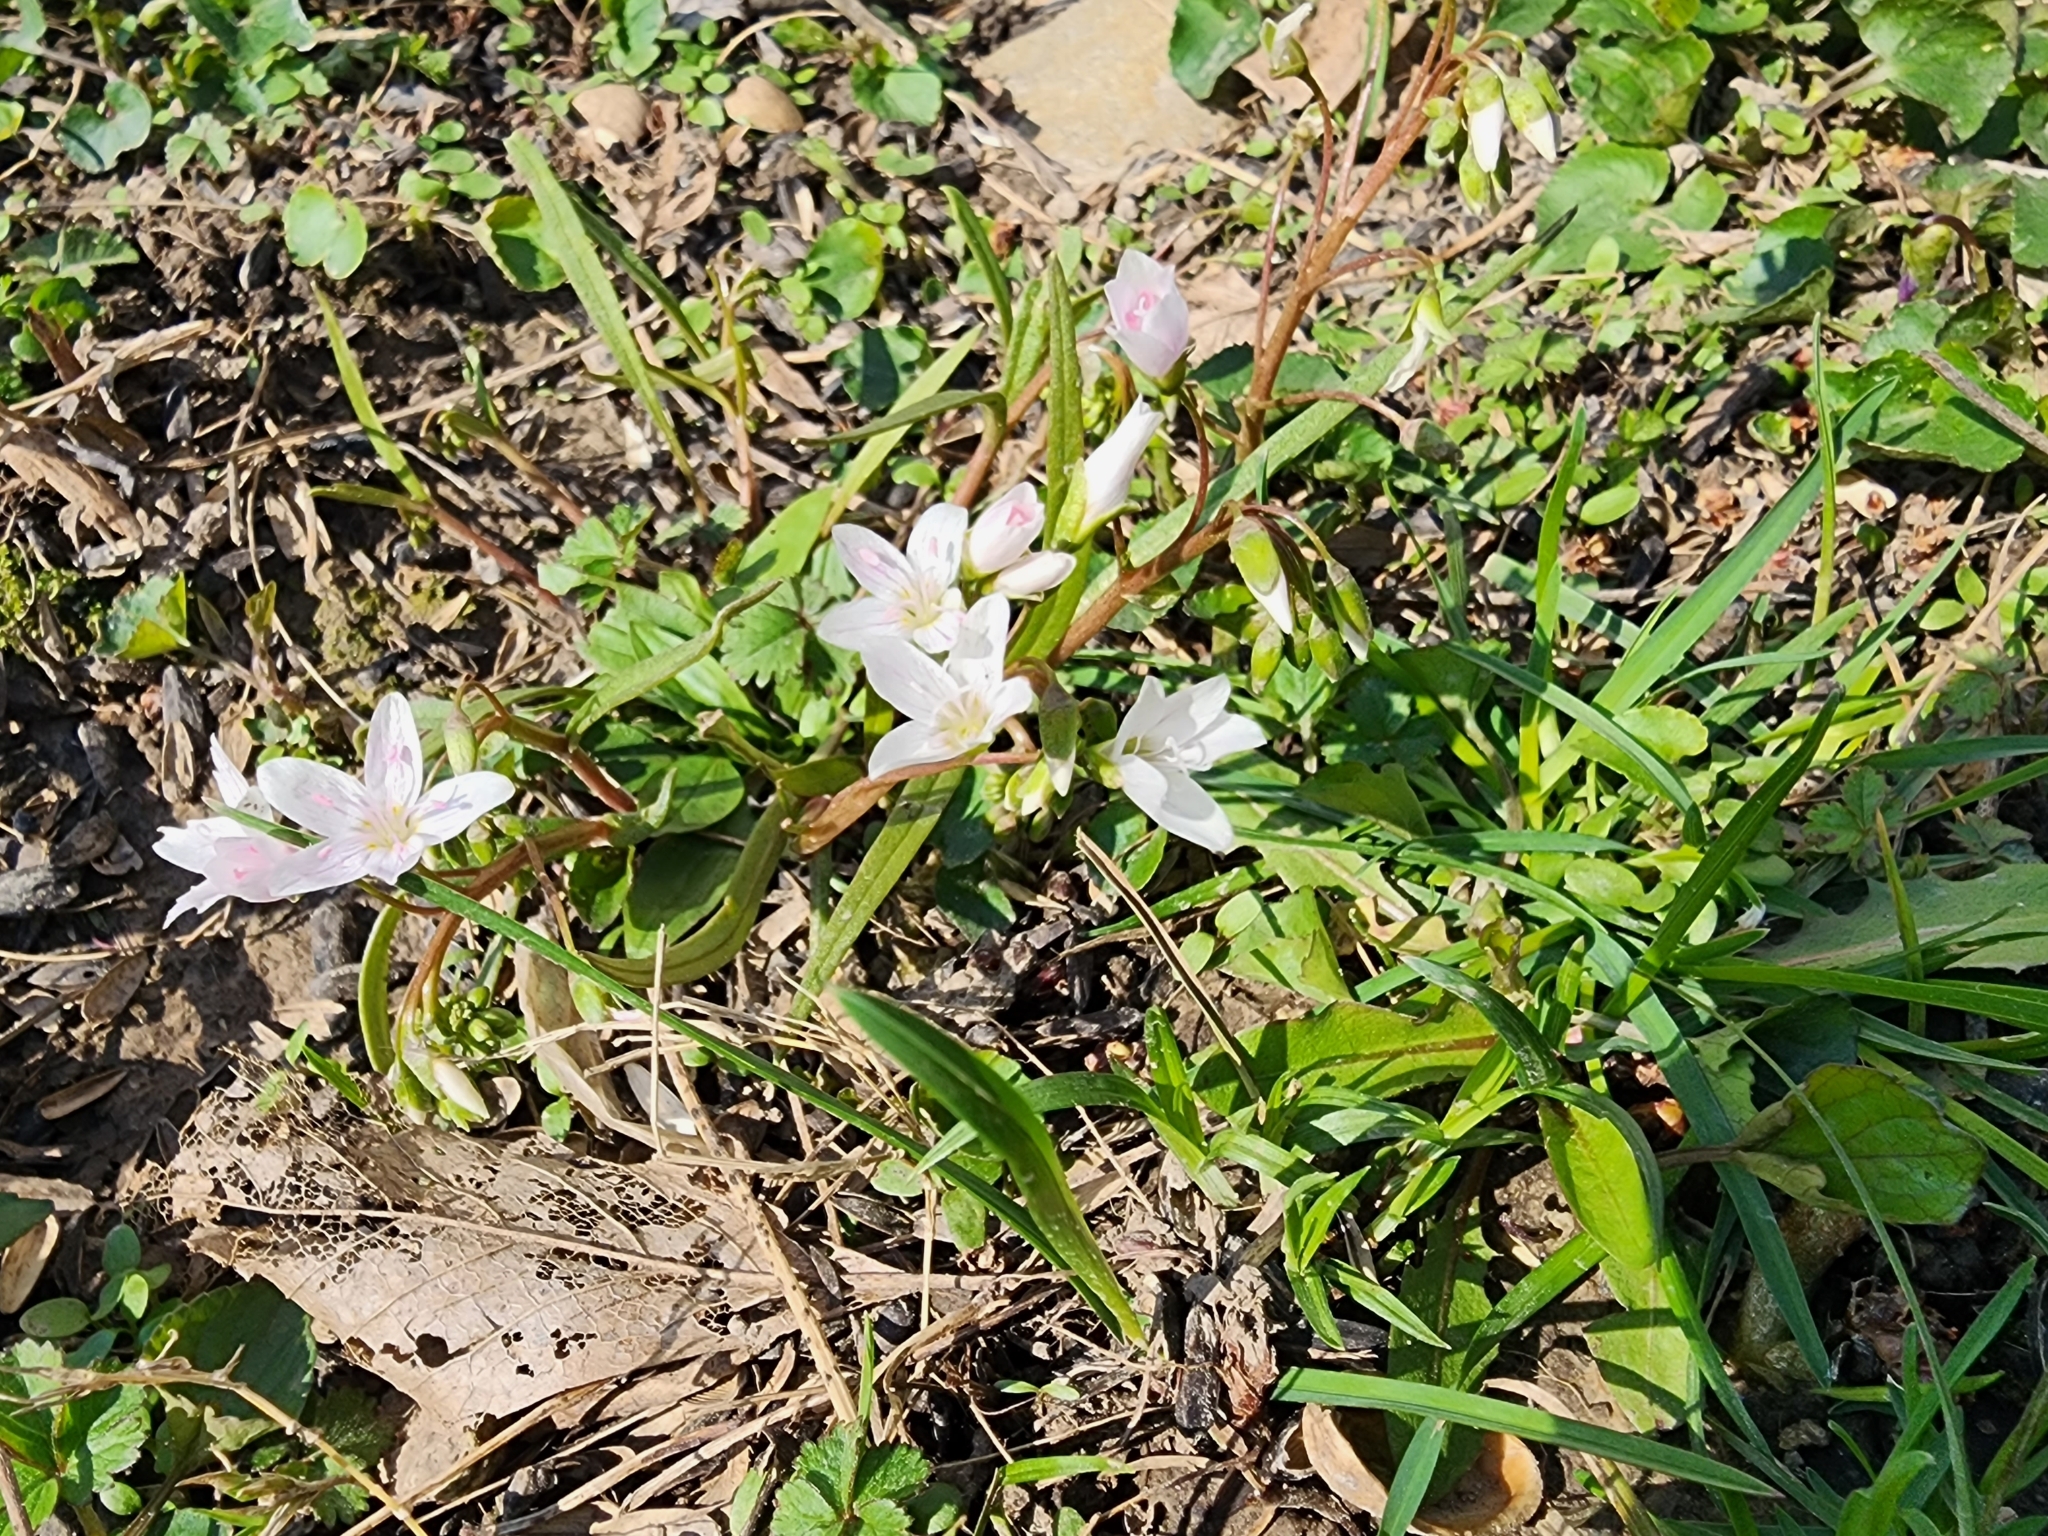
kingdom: Plantae
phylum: Tracheophyta
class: Magnoliopsida
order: Caryophyllales
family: Montiaceae
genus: Claytonia
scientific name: Claytonia virginica
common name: Virginia springbeauty
